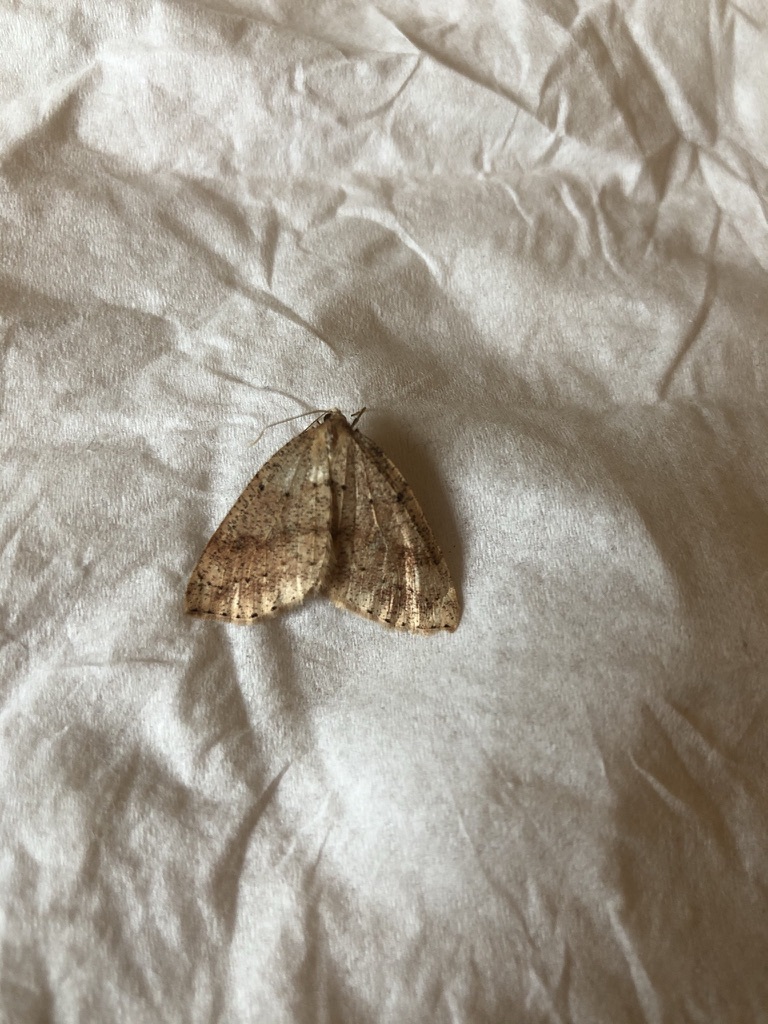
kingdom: Animalia
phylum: Arthropoda
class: Insecta
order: Lepidoptera
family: Geometridae
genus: Thallophaga
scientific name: Thallophaga hyperborea
